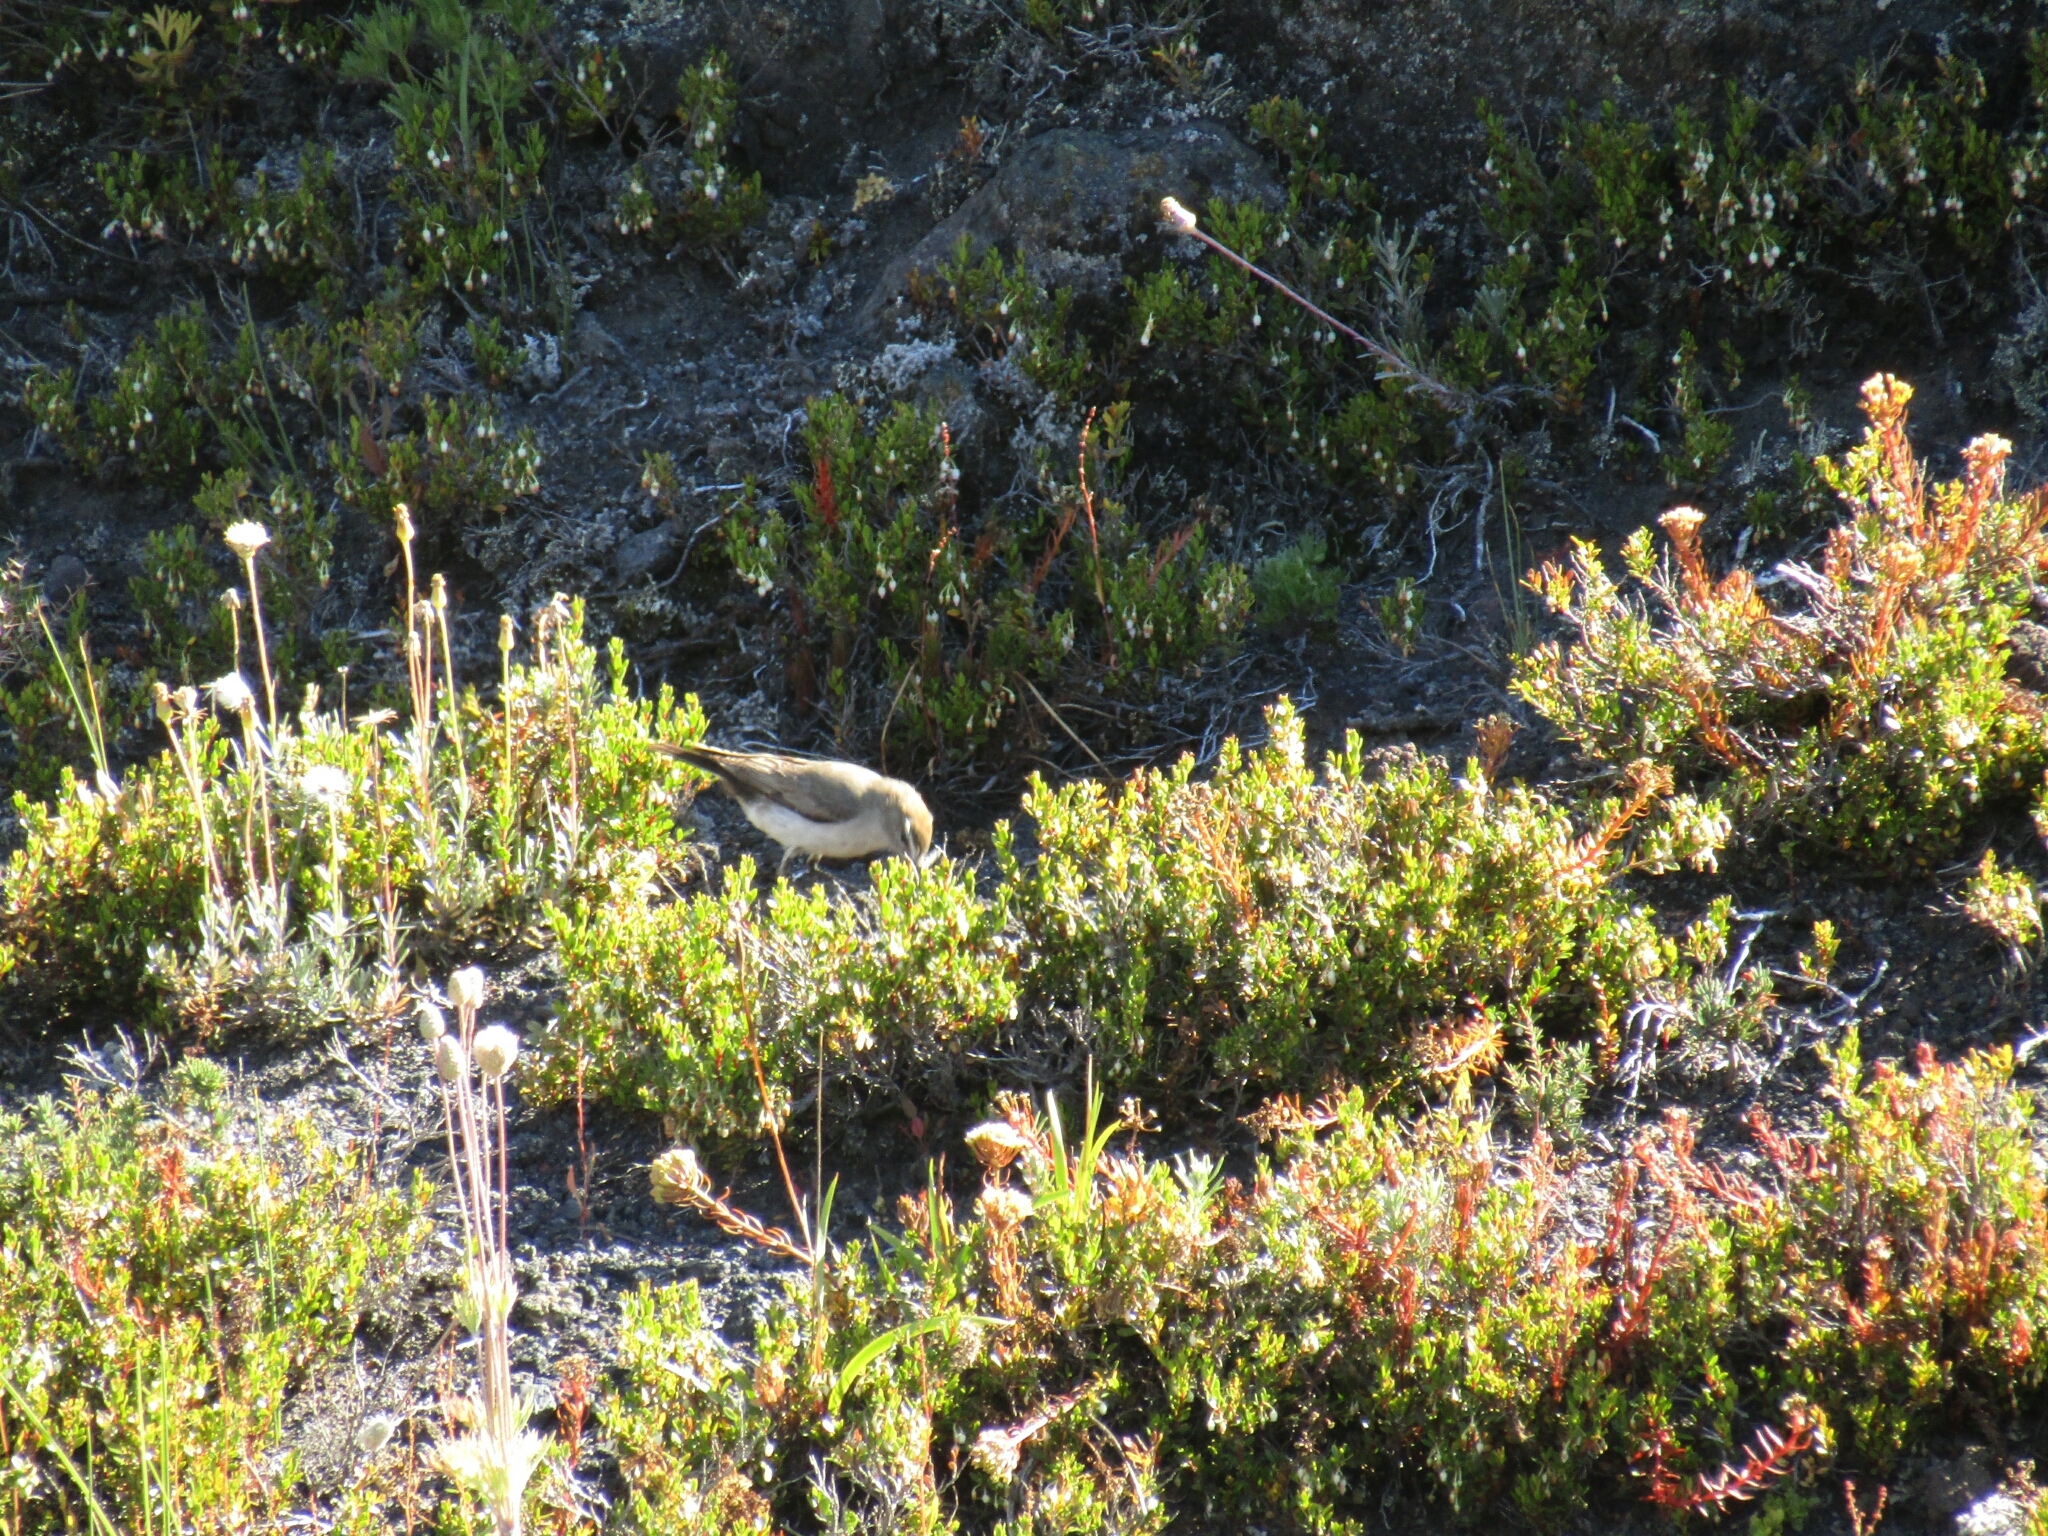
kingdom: Animalia
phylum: Chordata
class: Aves
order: Passeriformes
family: Tyrannidae
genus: Muscisaxicola
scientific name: Muscisaxicola albilora
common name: White-browed ground tyrant
